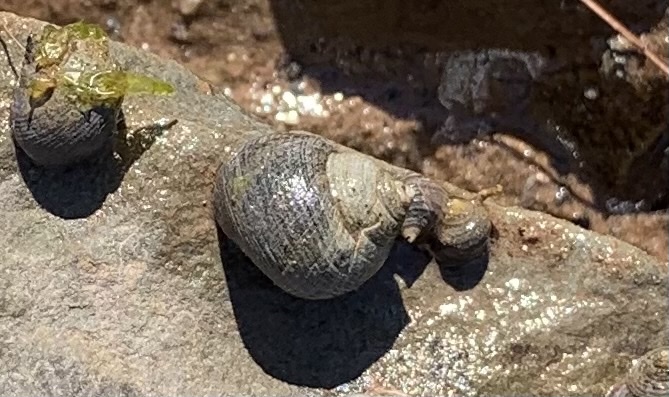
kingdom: Animalia
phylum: Mollusca
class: Gastropoda
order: Littorinimorpha
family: Littorinidae
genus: Littorina
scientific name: Littorina littorea
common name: Common periwinkle
